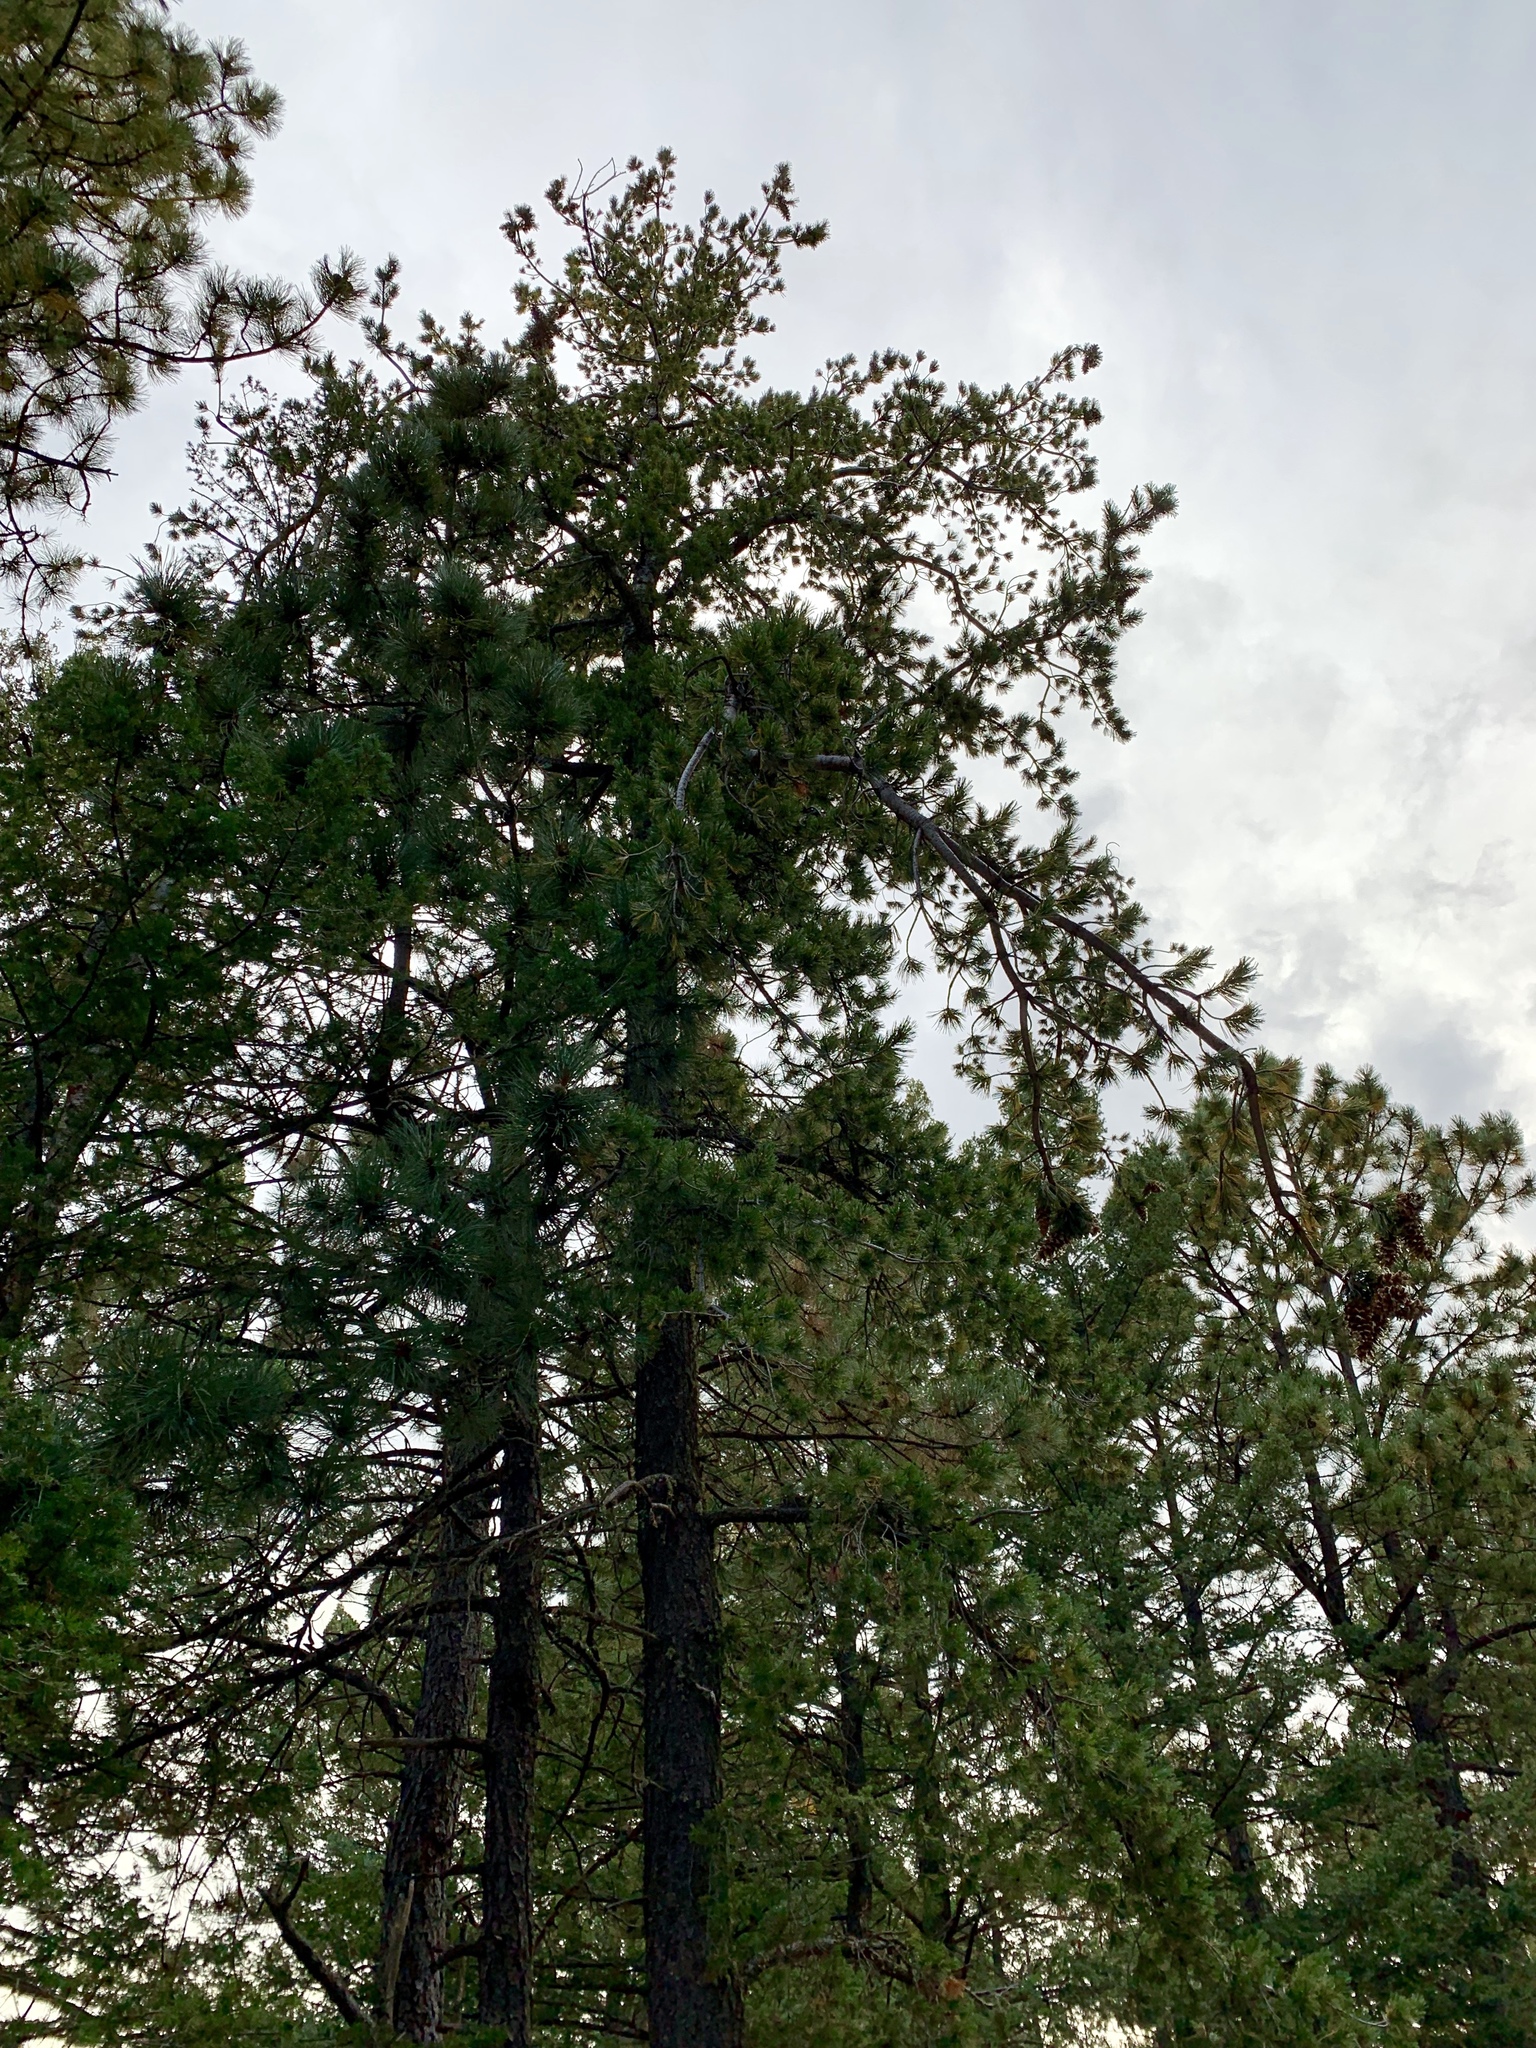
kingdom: Plantae
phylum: Tracheophyta
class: Pinopsida
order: Pinales
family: Pinaceae
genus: Pinus
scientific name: Pinus strobiformis
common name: Southwestern white pine
